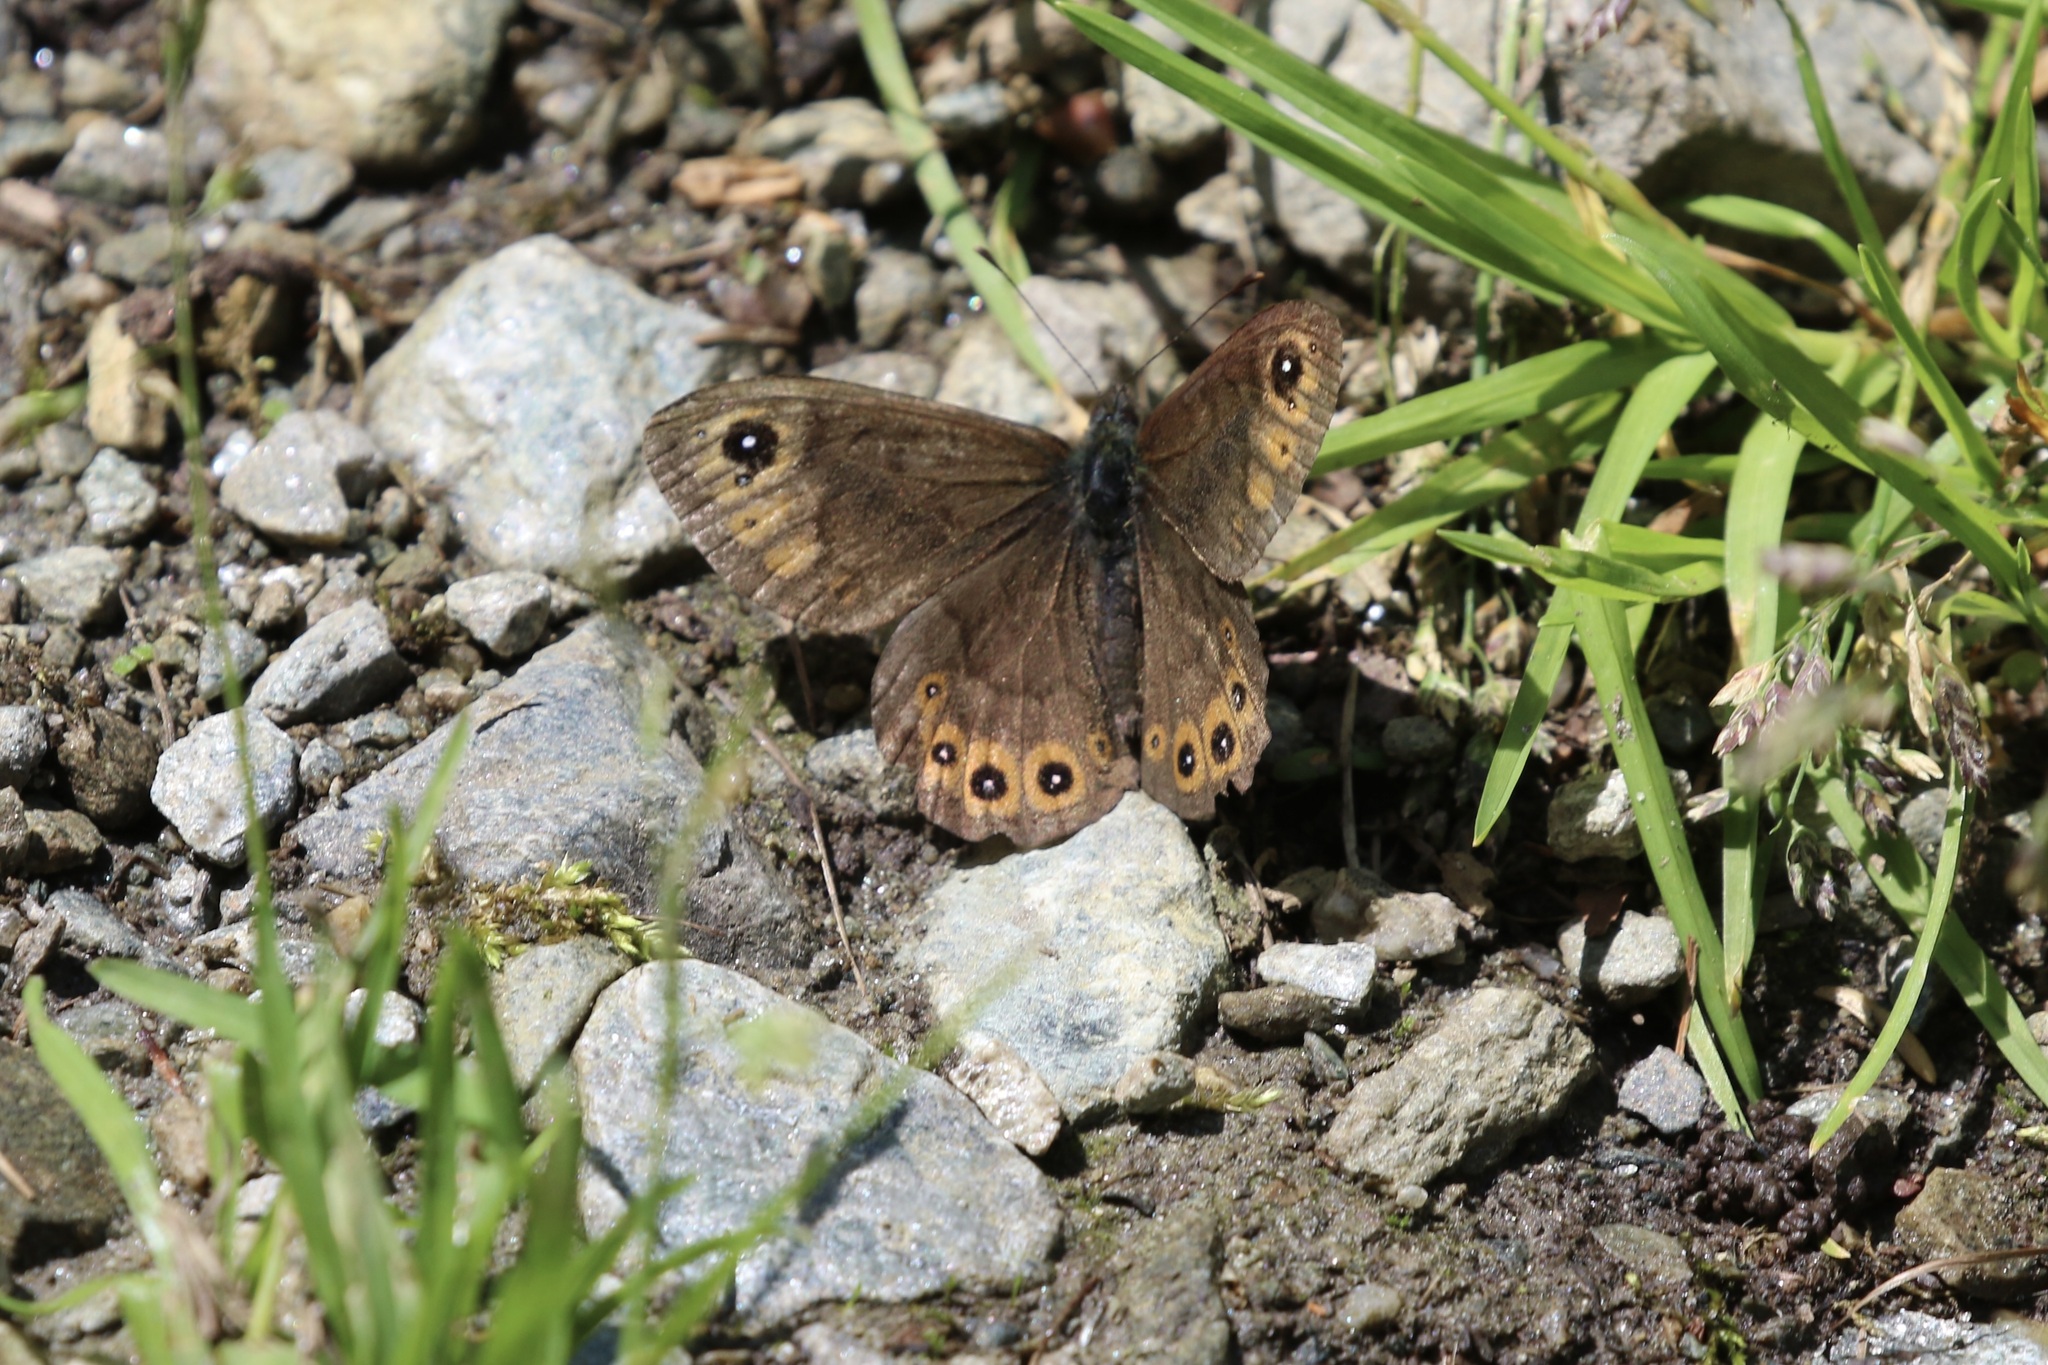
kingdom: Animalia
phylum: Arthropoda
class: Insecta
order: Lepidoptera
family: Nymphalidae
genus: Pararge
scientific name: Pararge petropolitana
